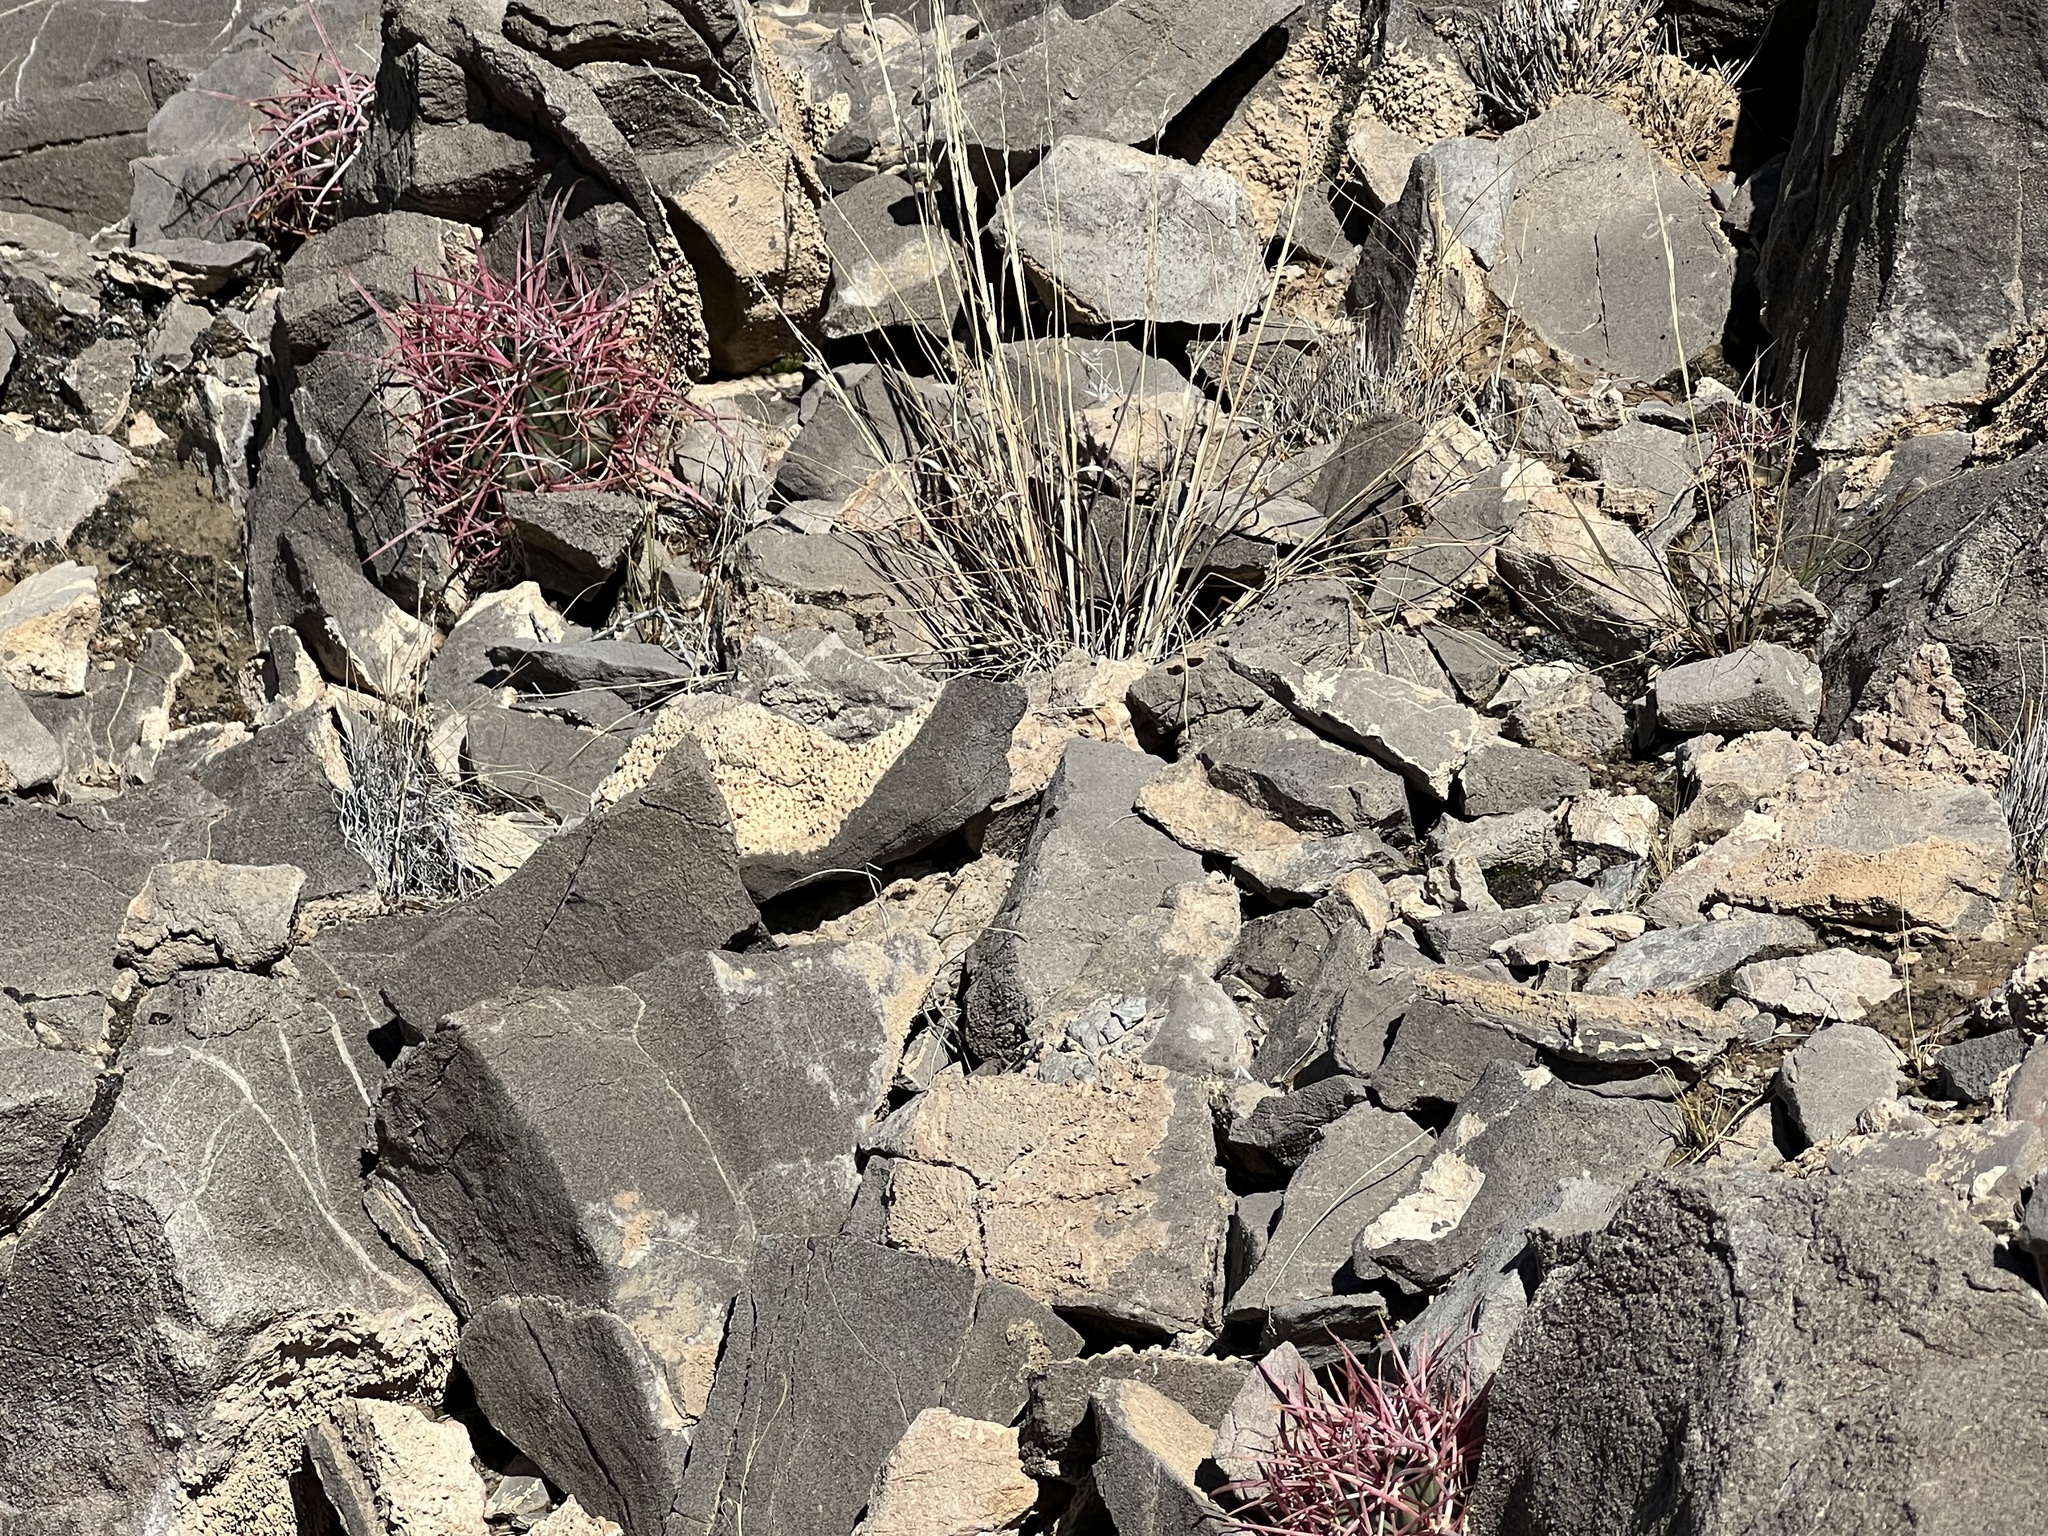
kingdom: Plantae
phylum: Tracheophyta
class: Magnoliopsida
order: Caryophyllales
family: Cactaceae
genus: Ferocactus
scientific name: Ferocactus cylindraceus
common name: California barrel cactus
